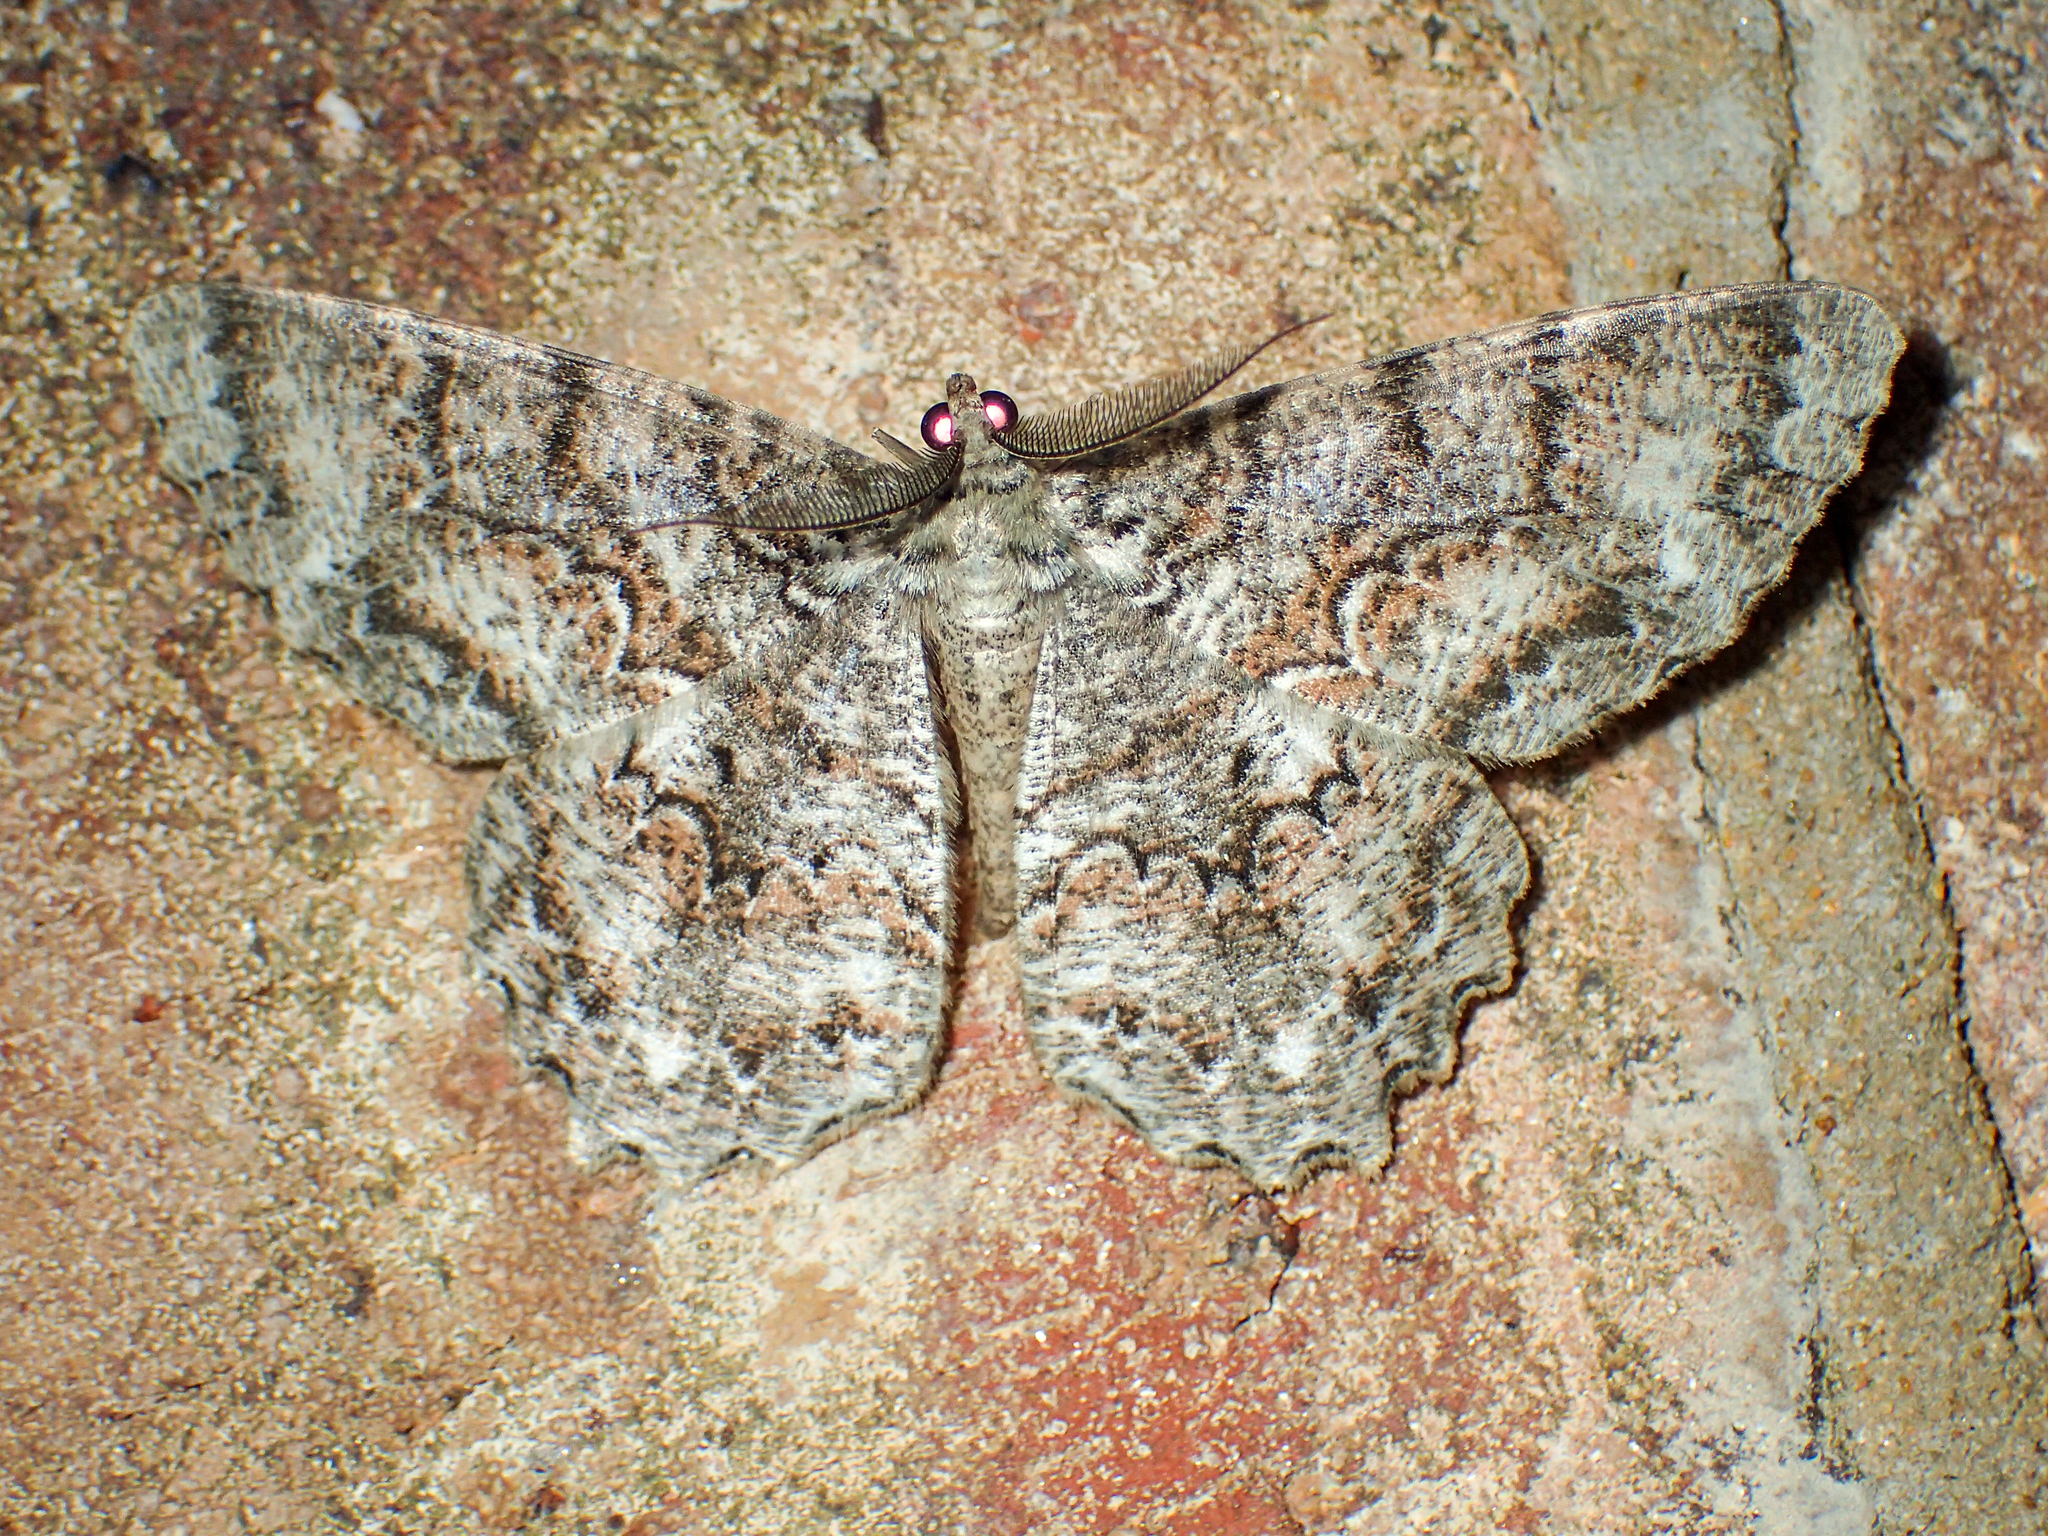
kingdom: Animalia
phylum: Arthropoda
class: Insecta
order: Lepidoptera
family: Geometridae
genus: Epimecis
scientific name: Epimecis hortaria
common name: Tulip-tree beauty
